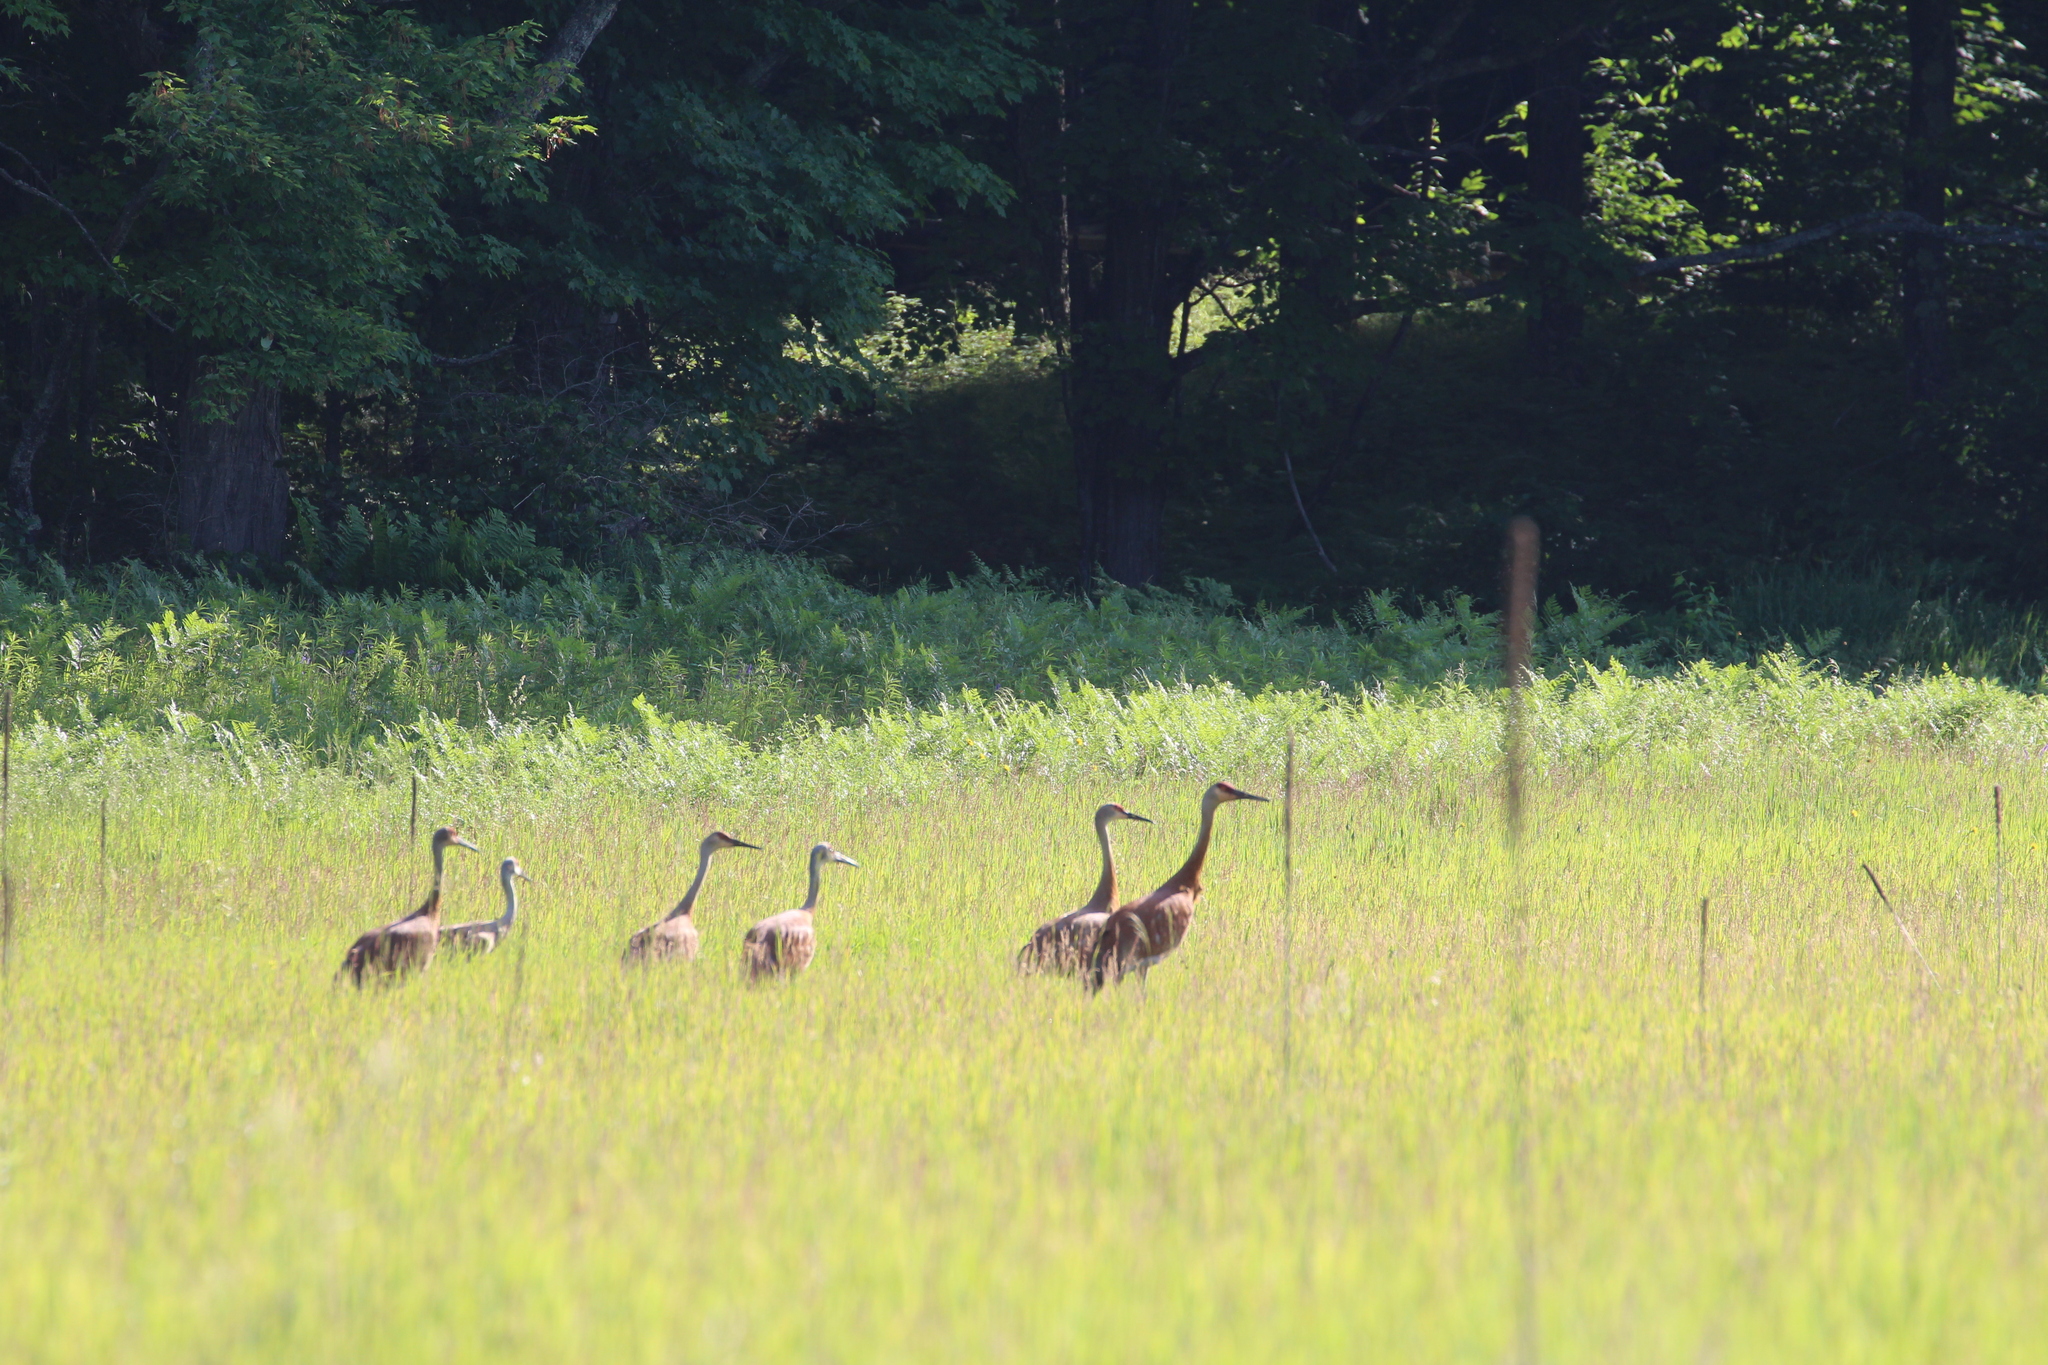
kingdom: Animalia
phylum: Chordata
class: Aves
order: Gruiformes
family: Gruidae
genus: Grus
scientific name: Grus canadensis
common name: Sandhill crane
